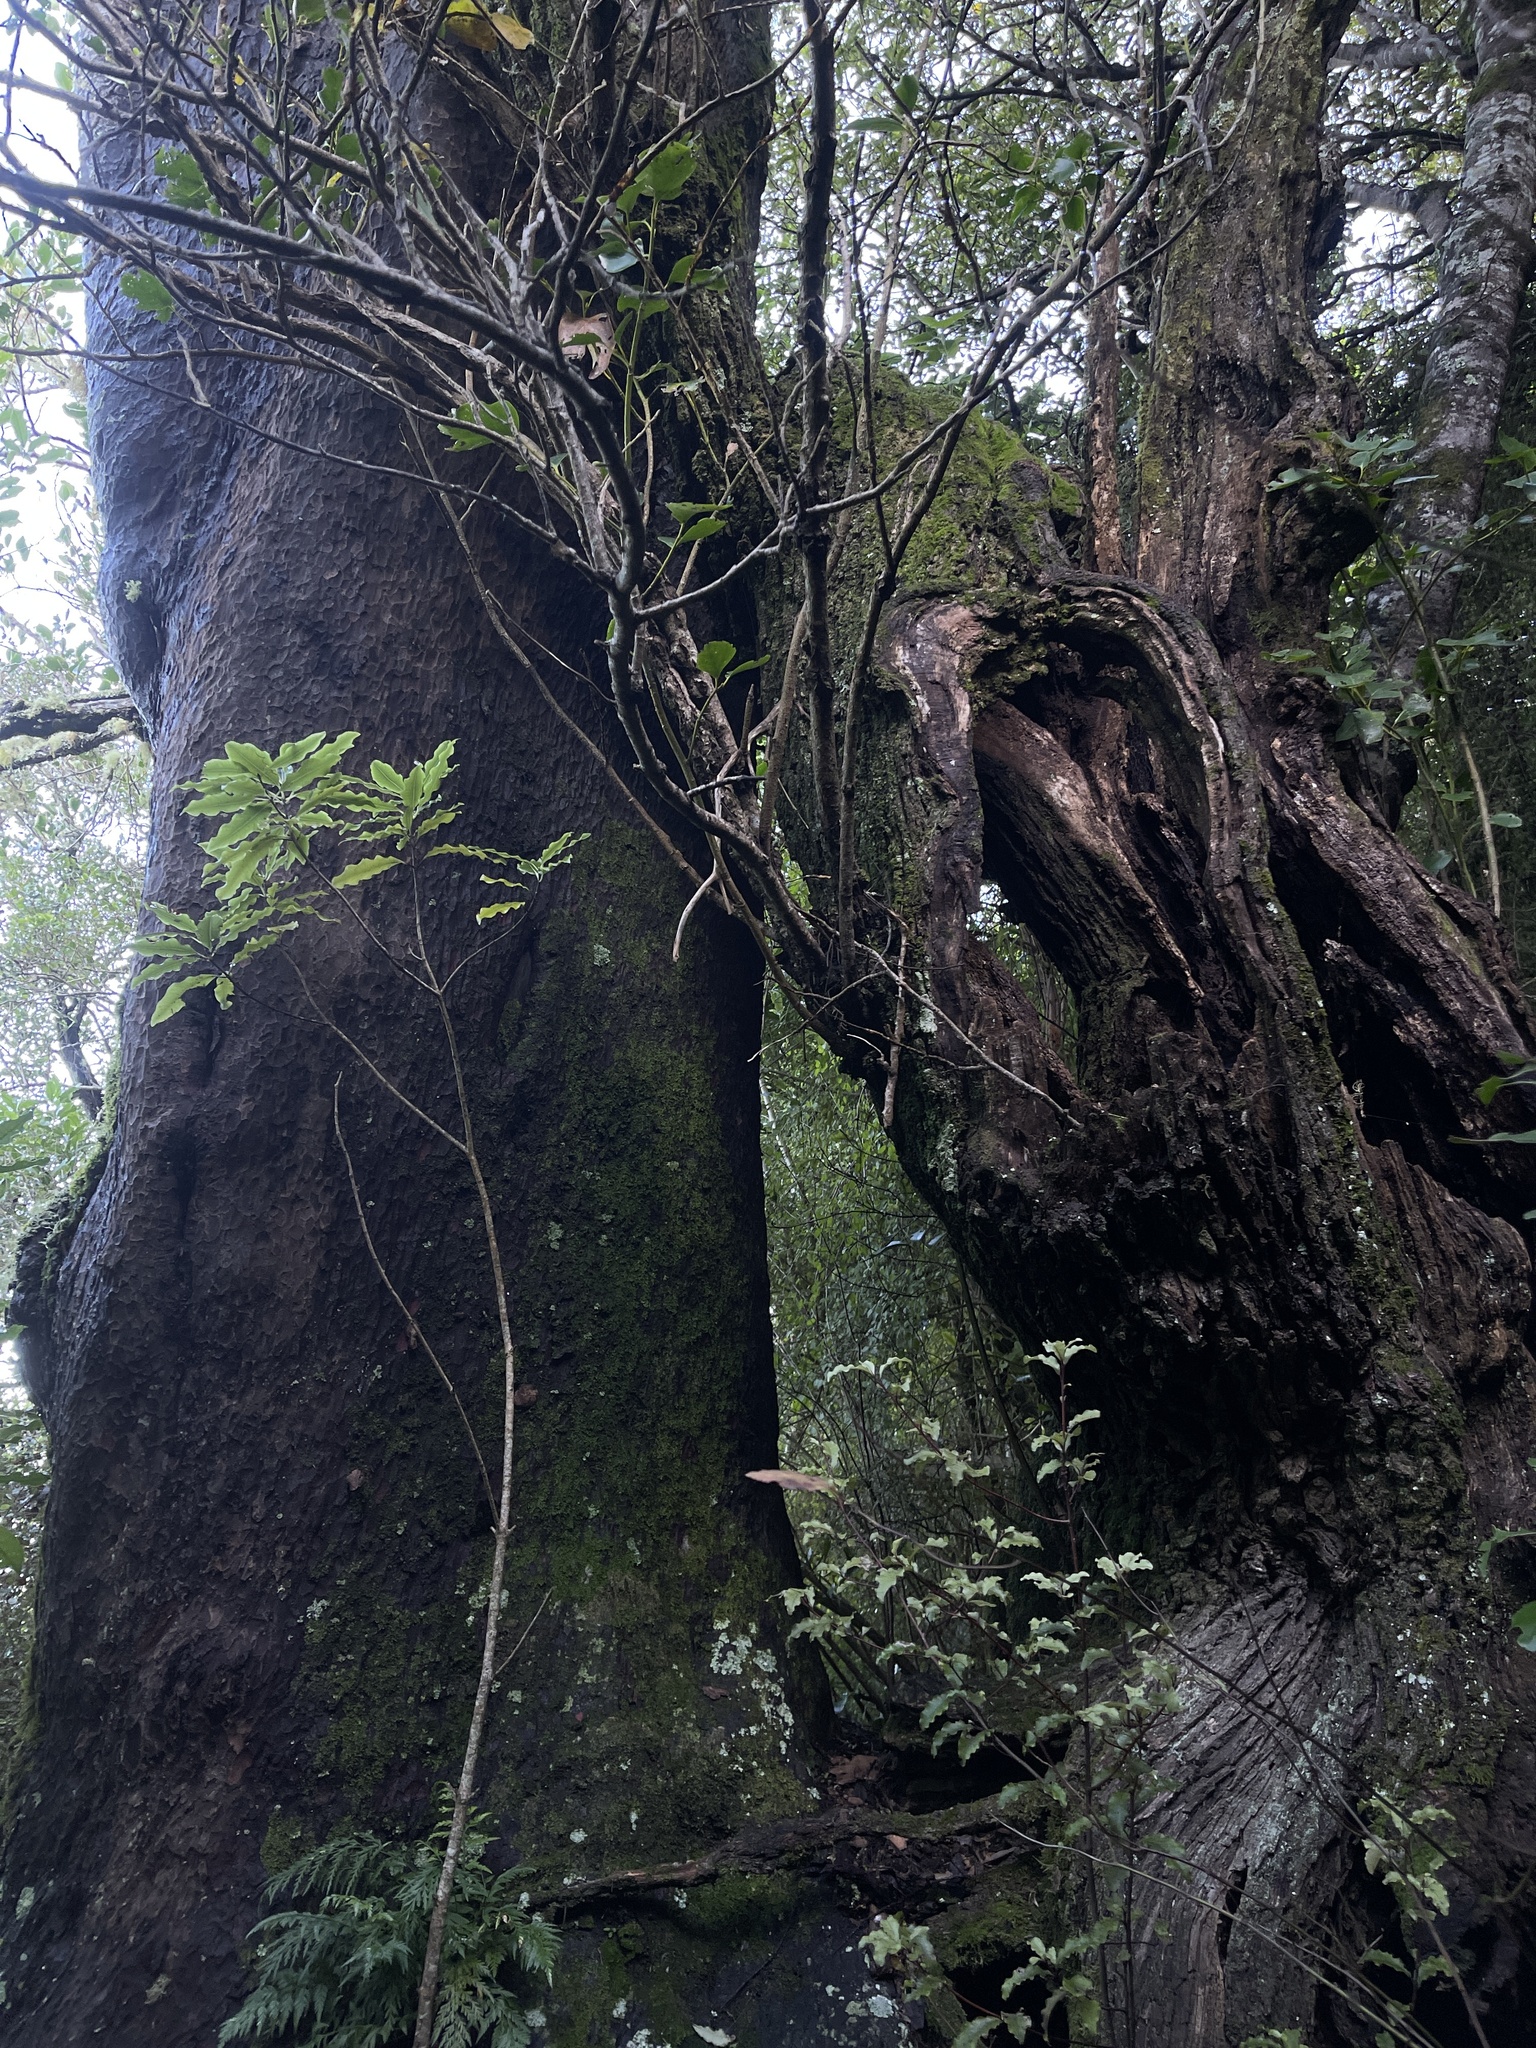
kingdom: Plantae
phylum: Tracheophyta
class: Magnoliopsida
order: Apiales
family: Griseliniaceae
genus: Griselinia
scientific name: Griselinia littoralis
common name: New zealand broadleaf
